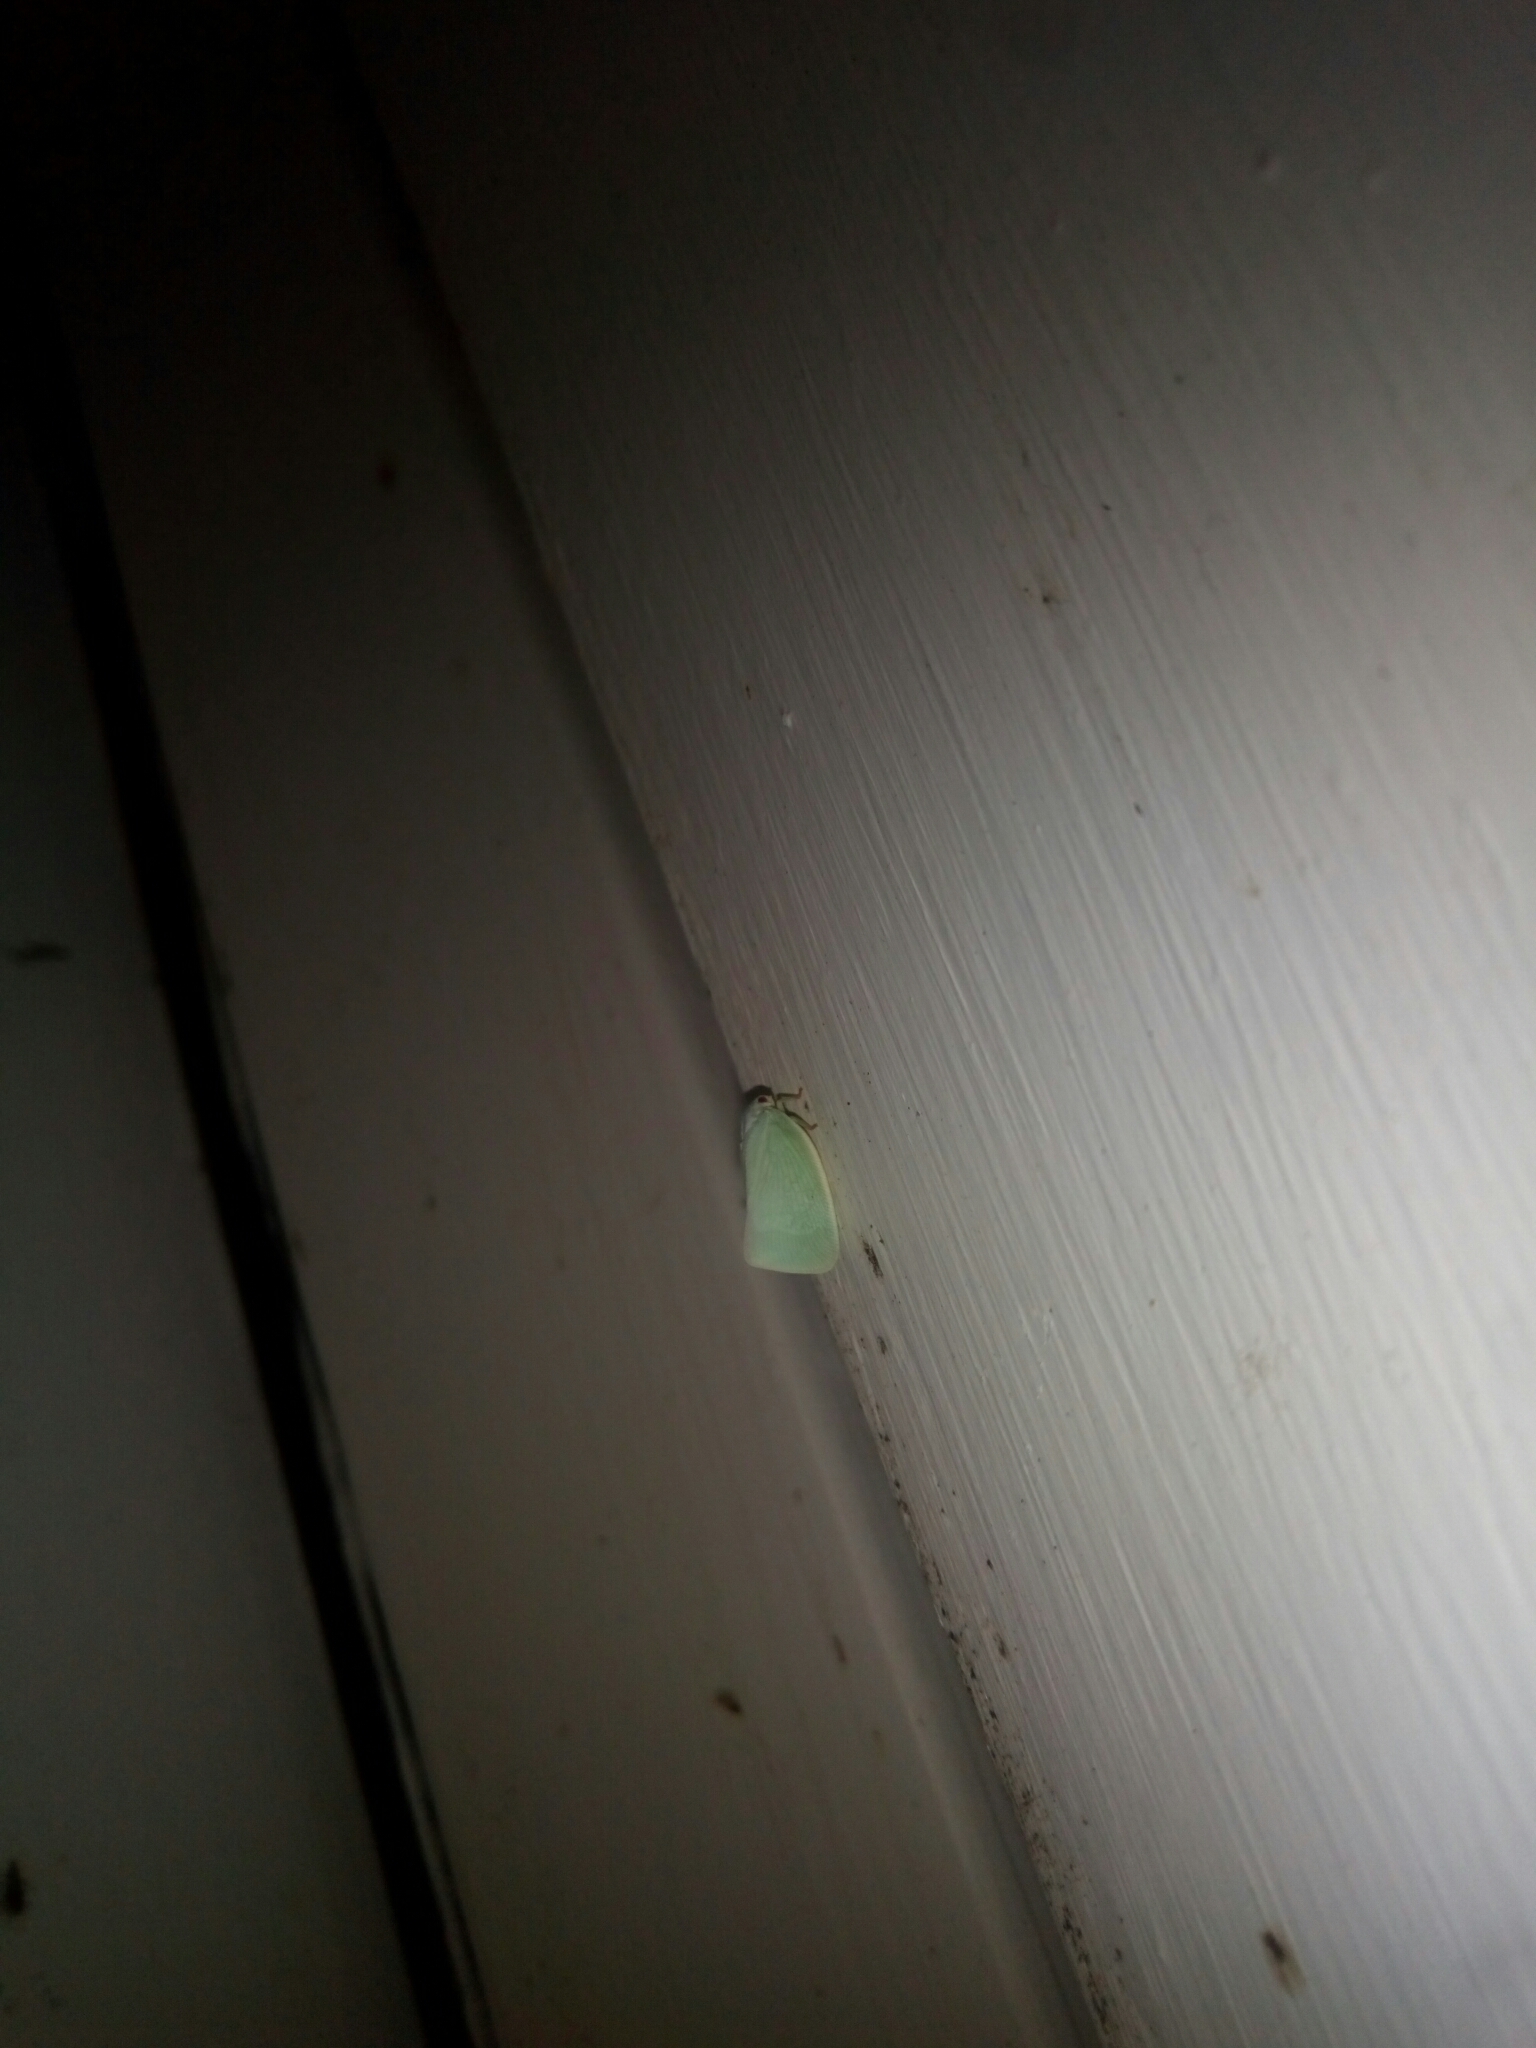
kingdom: Animalia
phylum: Arthropoda
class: Insecta
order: Hemiptera
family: Flatidae
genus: Flatormenis
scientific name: Flatormenis proxima
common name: Northern flatid planthopper
